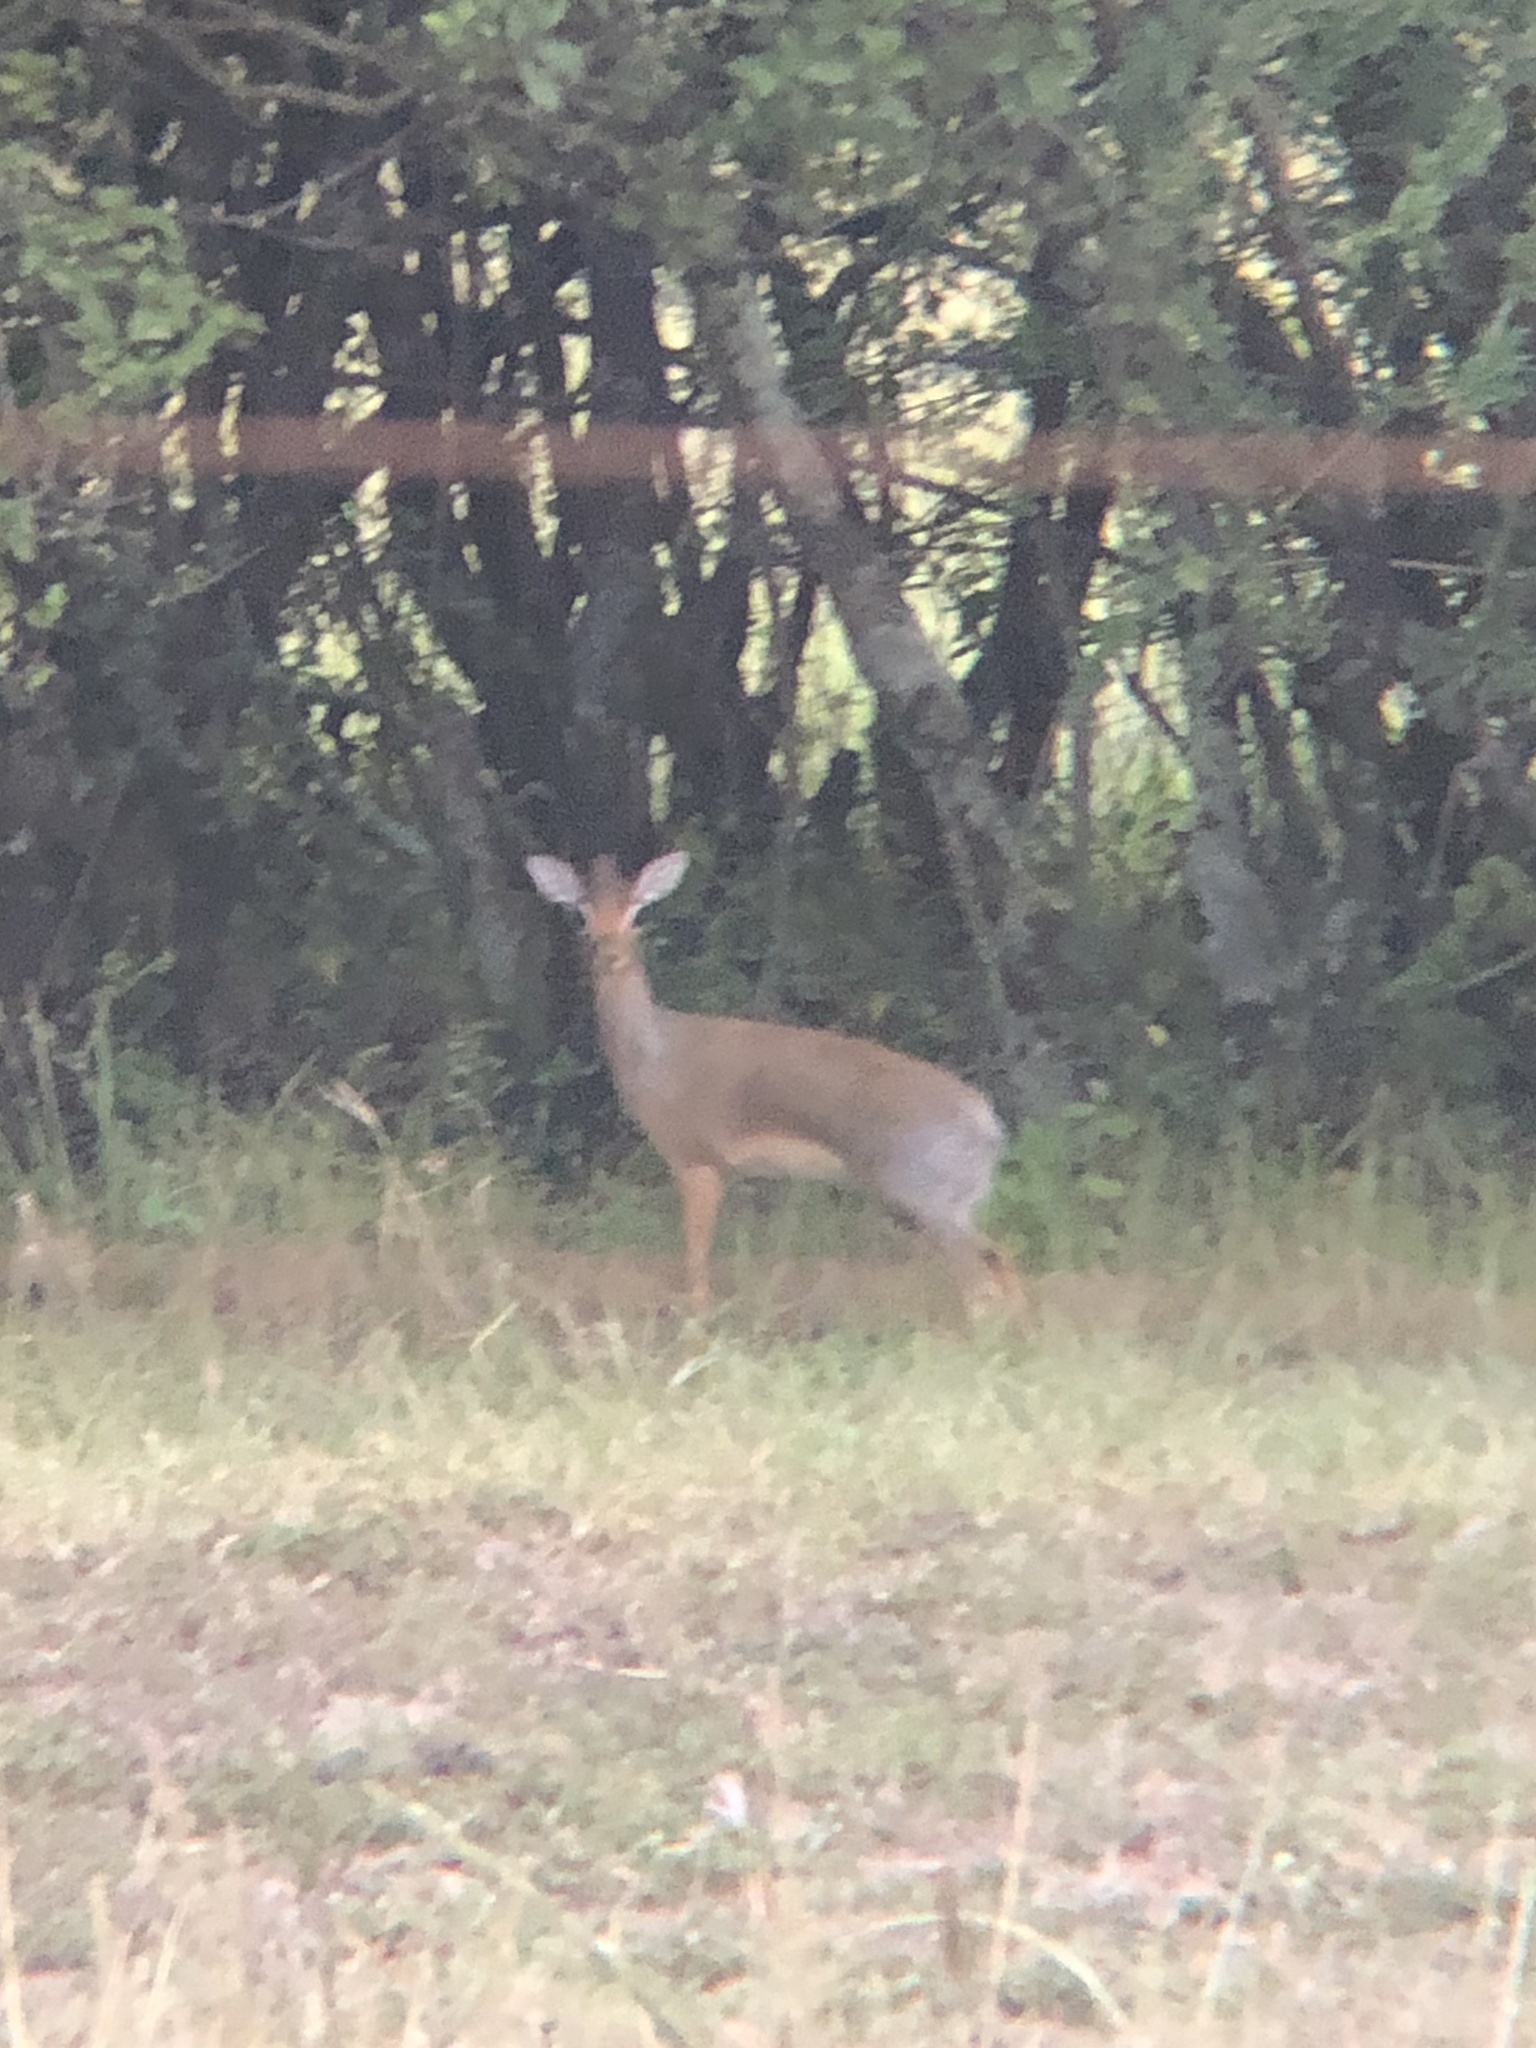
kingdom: Animalia
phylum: Chordata
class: Mammalia
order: Artiodactyla
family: Bovidae
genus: Madoqua
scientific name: Madoqua
